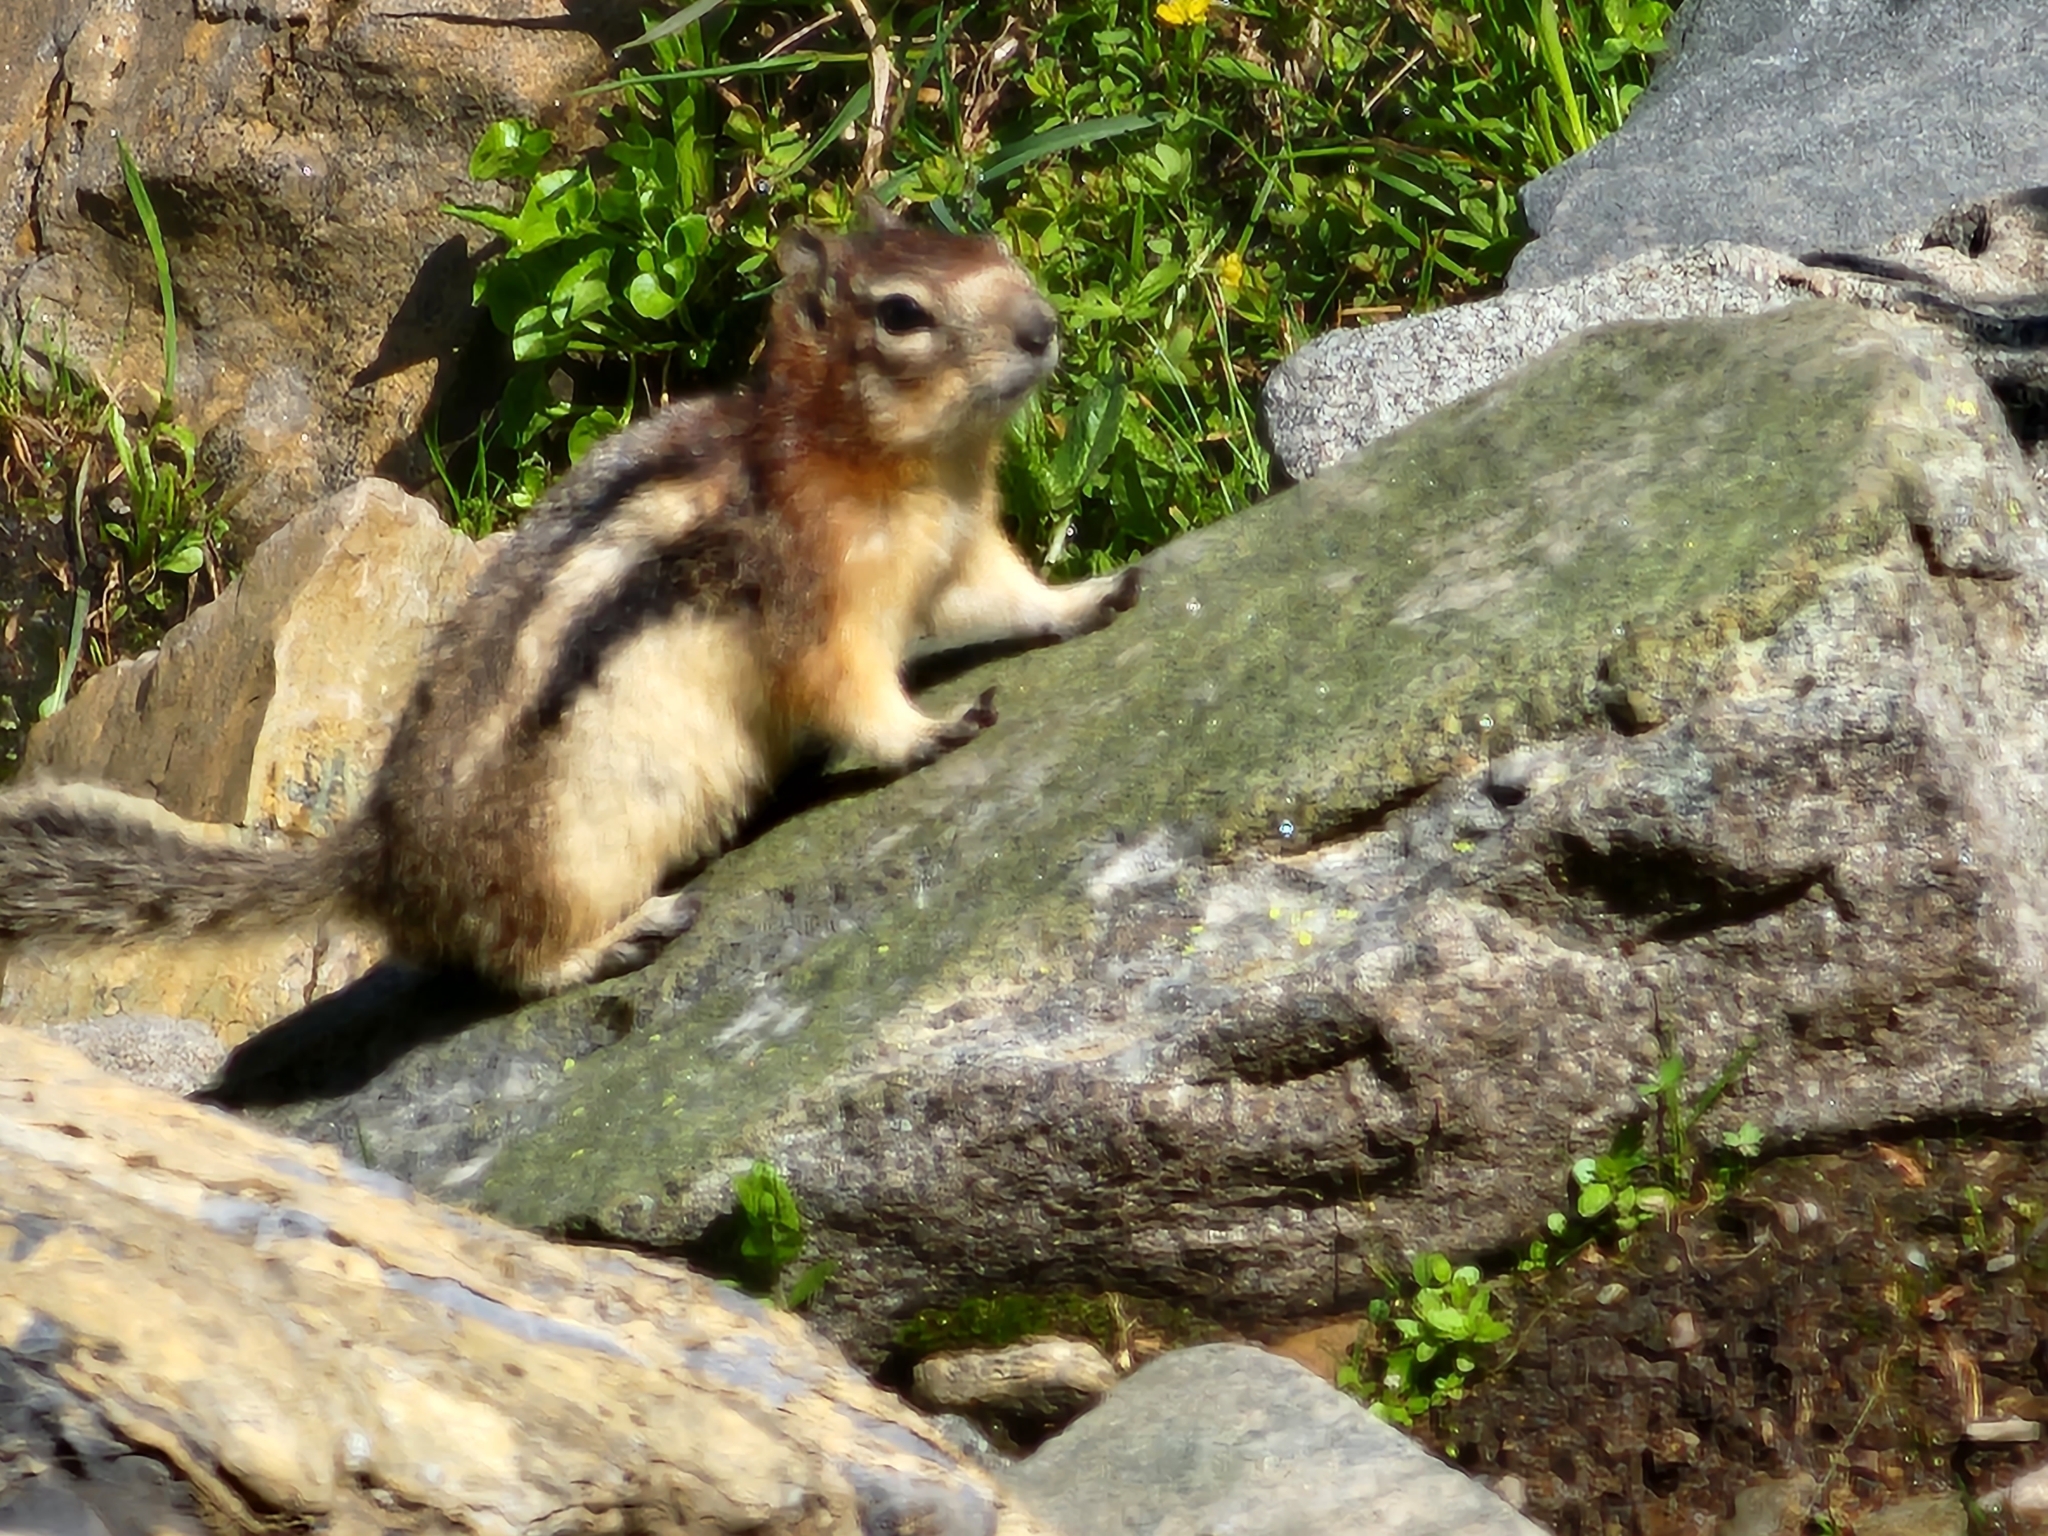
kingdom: Animalia
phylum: Chordata
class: Mammalia
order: Rodentia
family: Sciuridae
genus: Callospermophilus
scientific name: Callospermophilus lateralis
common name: Golden-mantled ground squirrel
